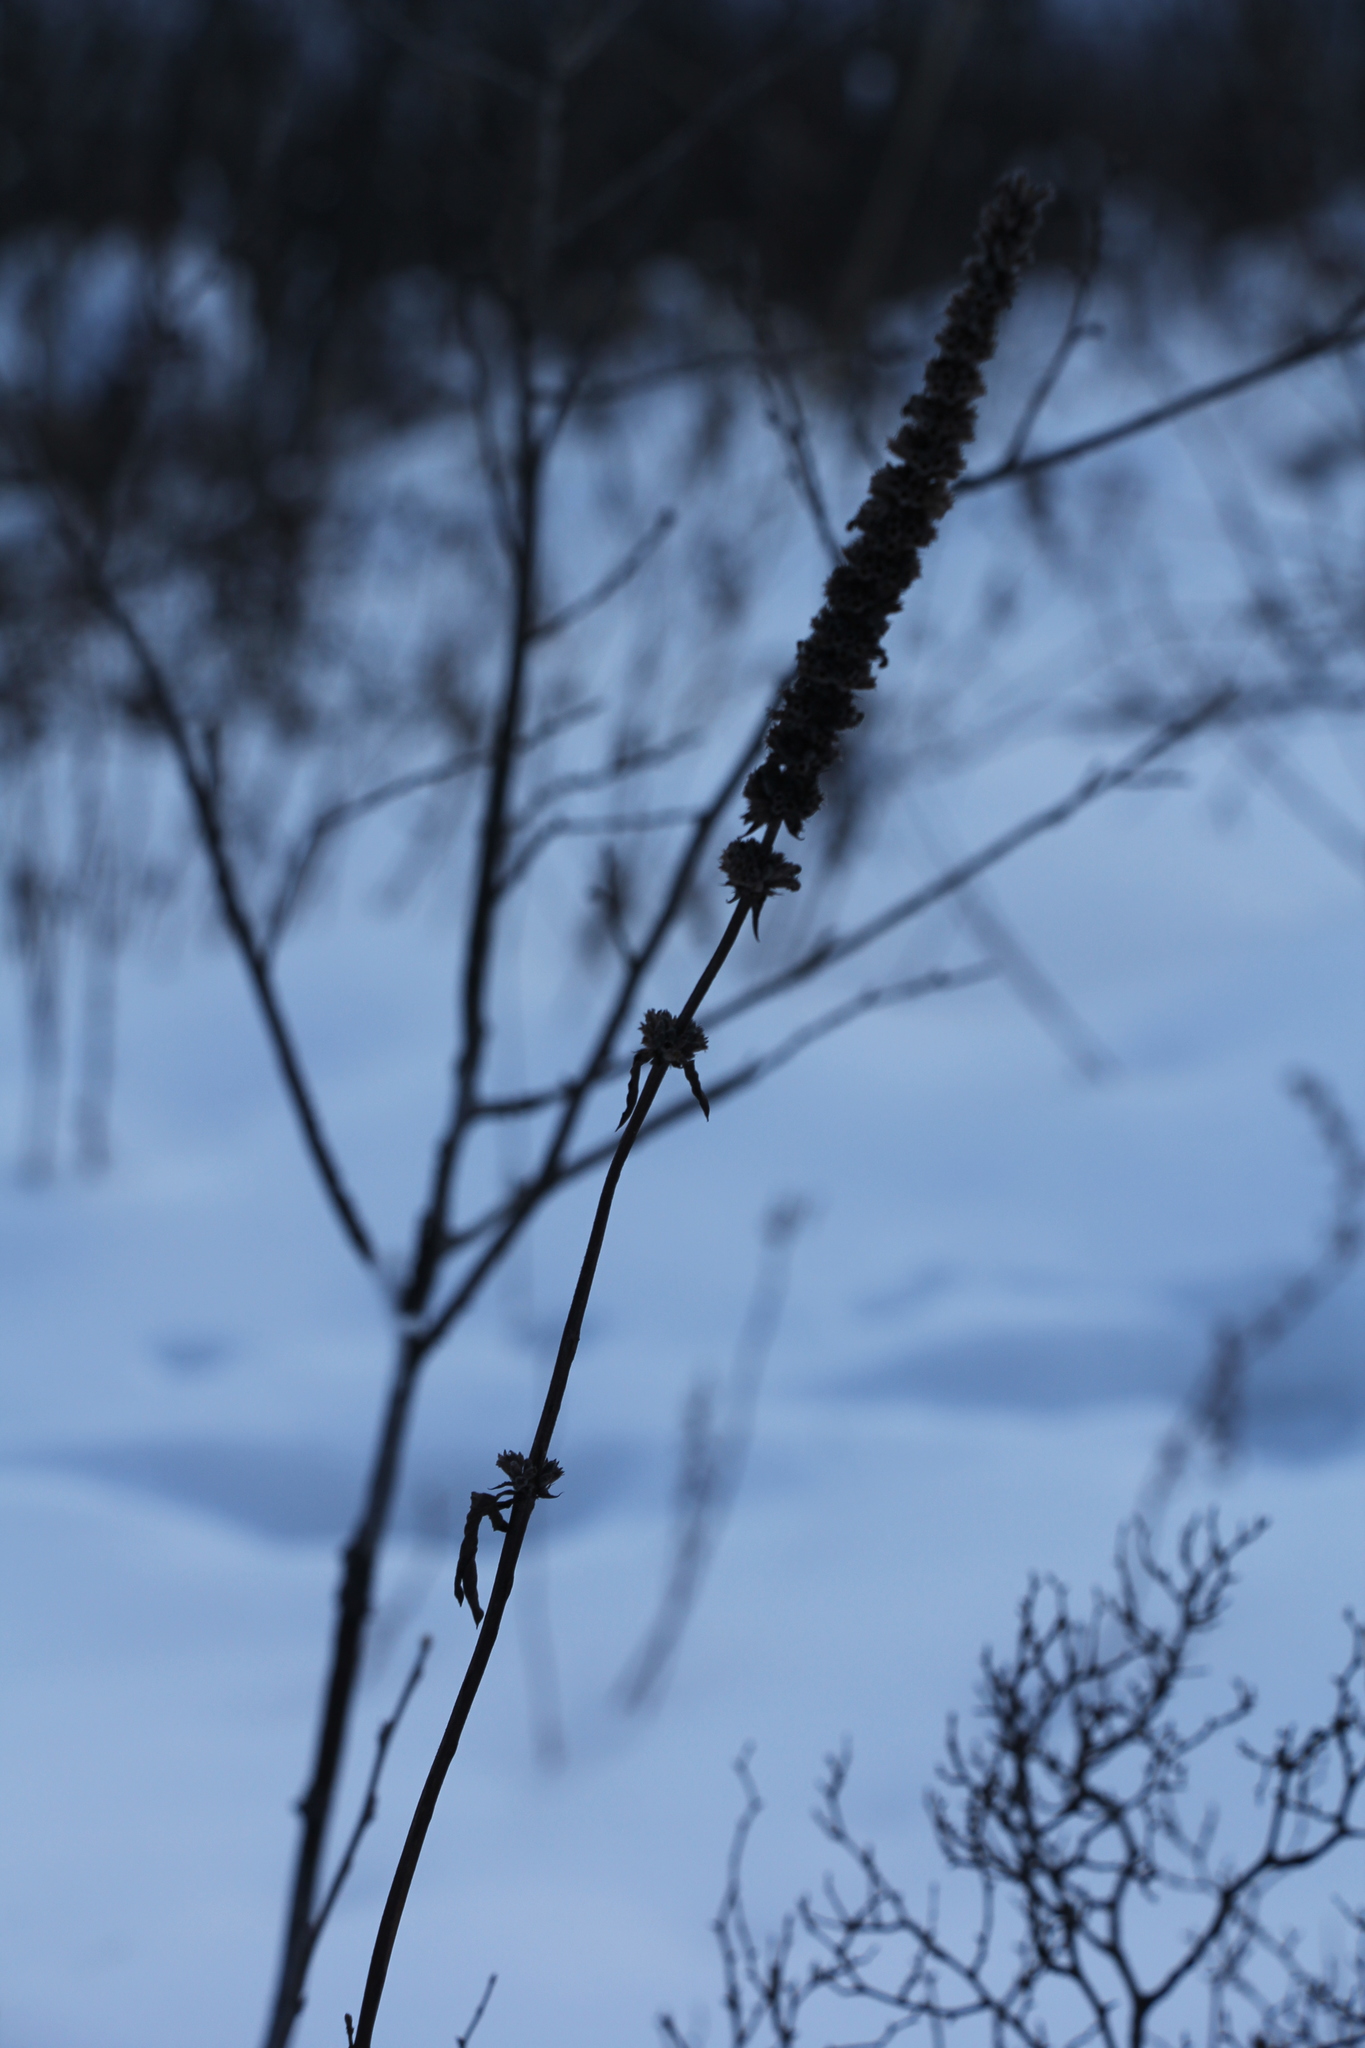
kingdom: Plantae
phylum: Tracheophyta
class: Magnoliopsida
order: Lamiales
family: Lamiaceae
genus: Nepeta
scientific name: Nepeta multifida
